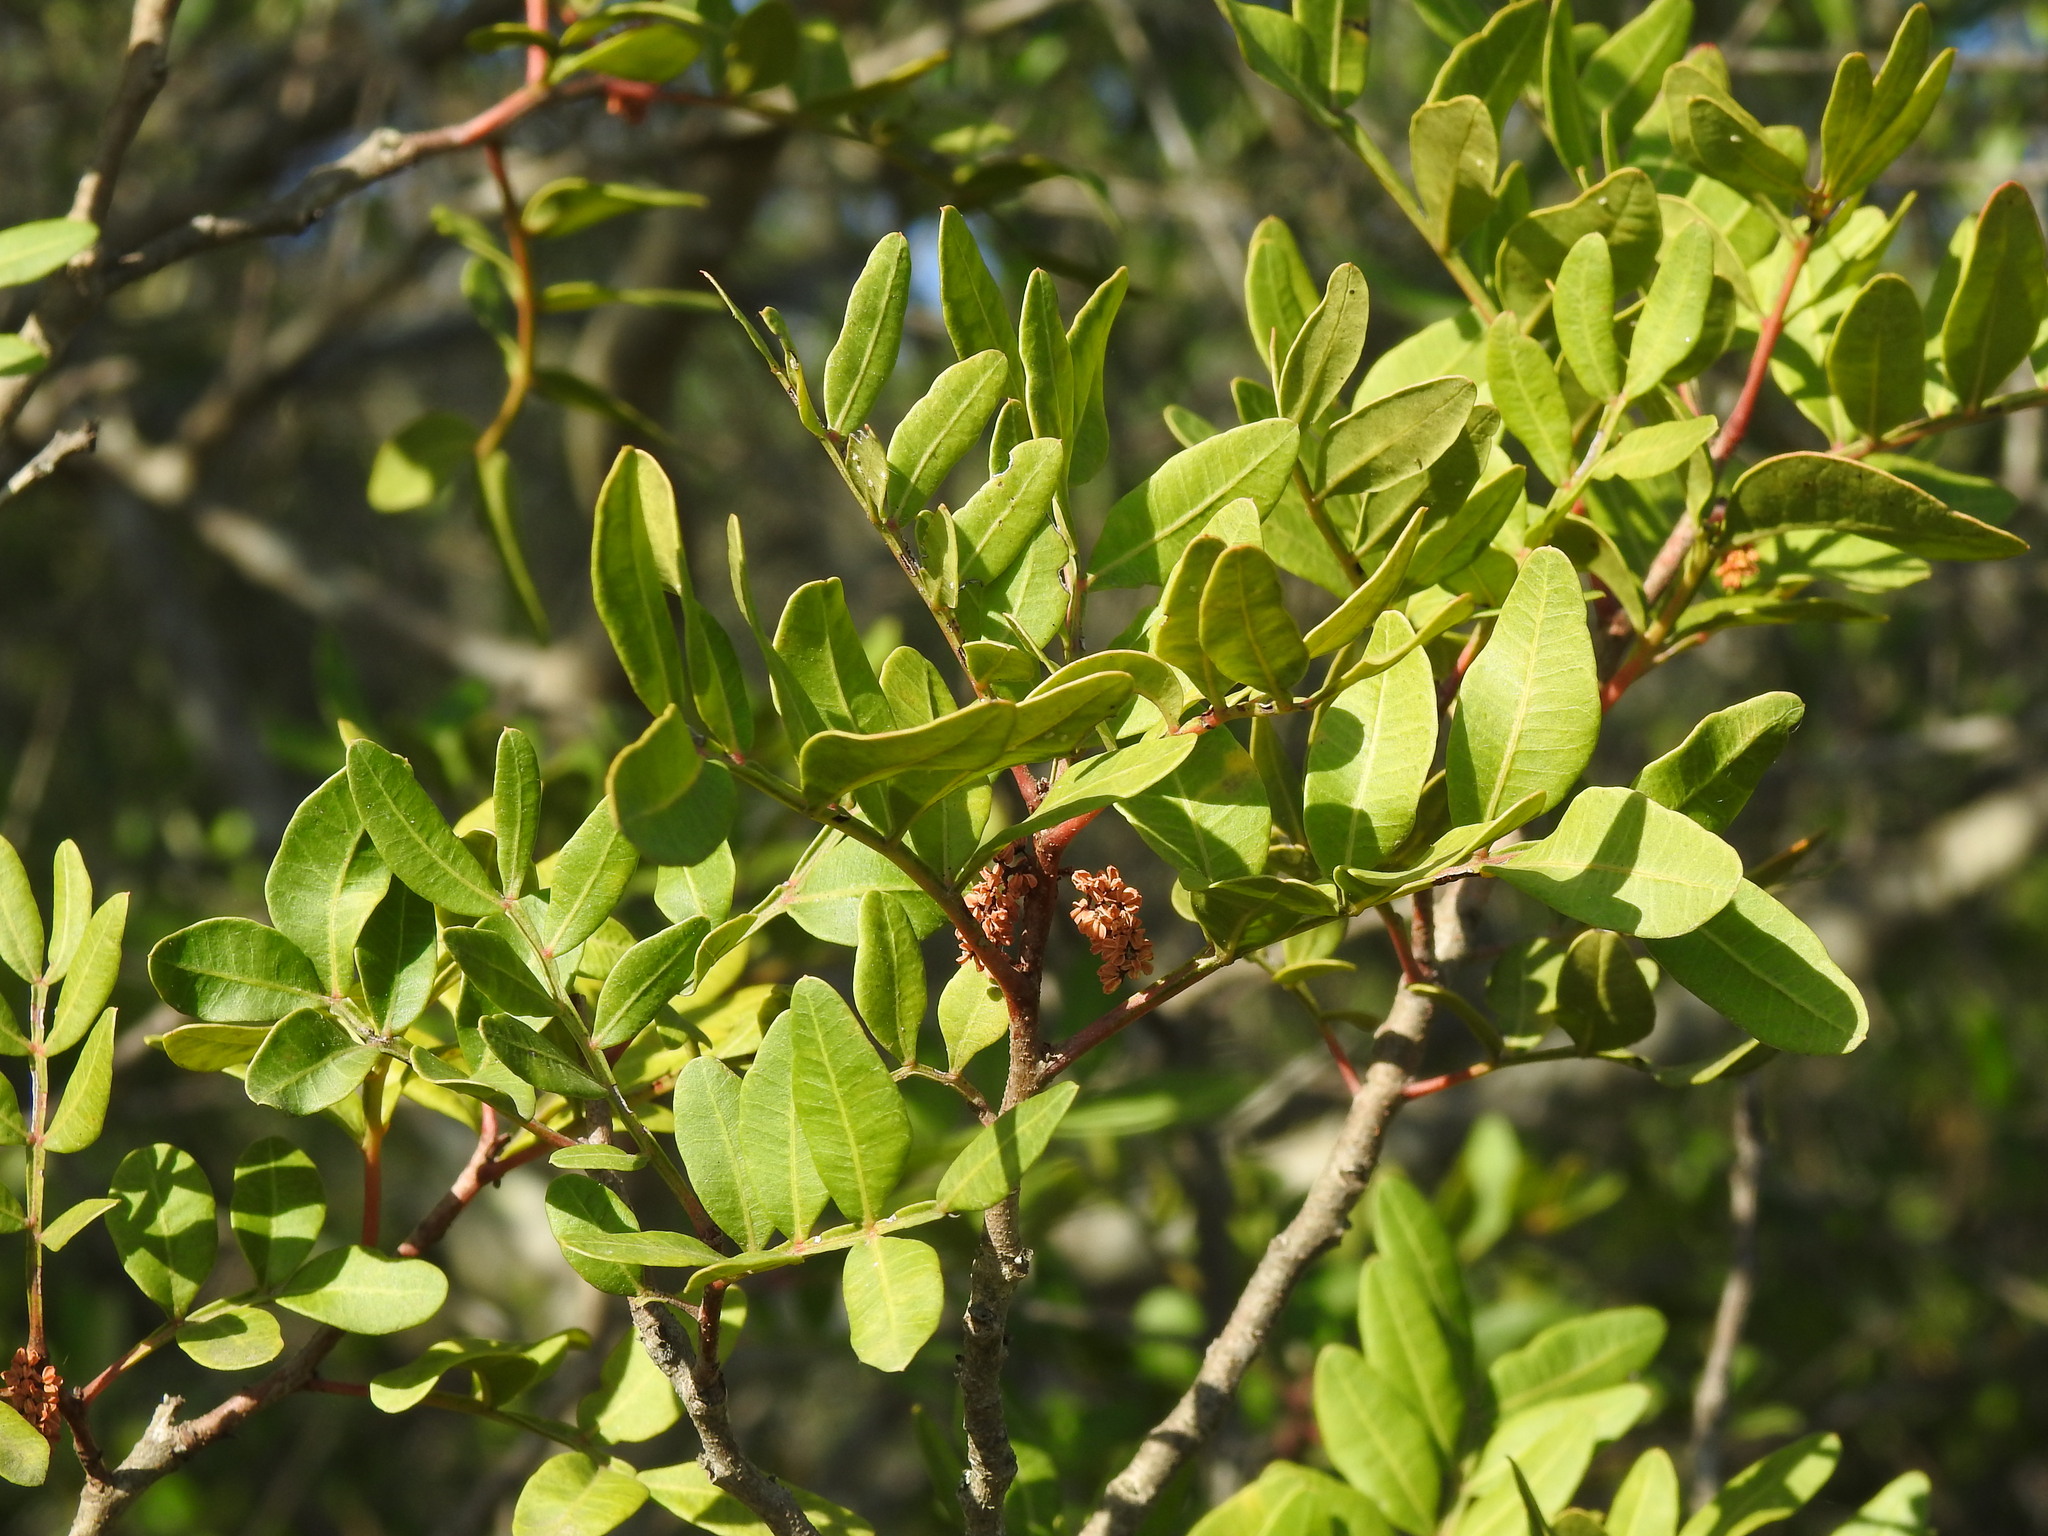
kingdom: Plantae
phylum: Tracheophyta
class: Magnoliopsida
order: Sapindales
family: Anacardiaceae
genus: Pistacia
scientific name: Pistacia lentiscus
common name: Lentisk
